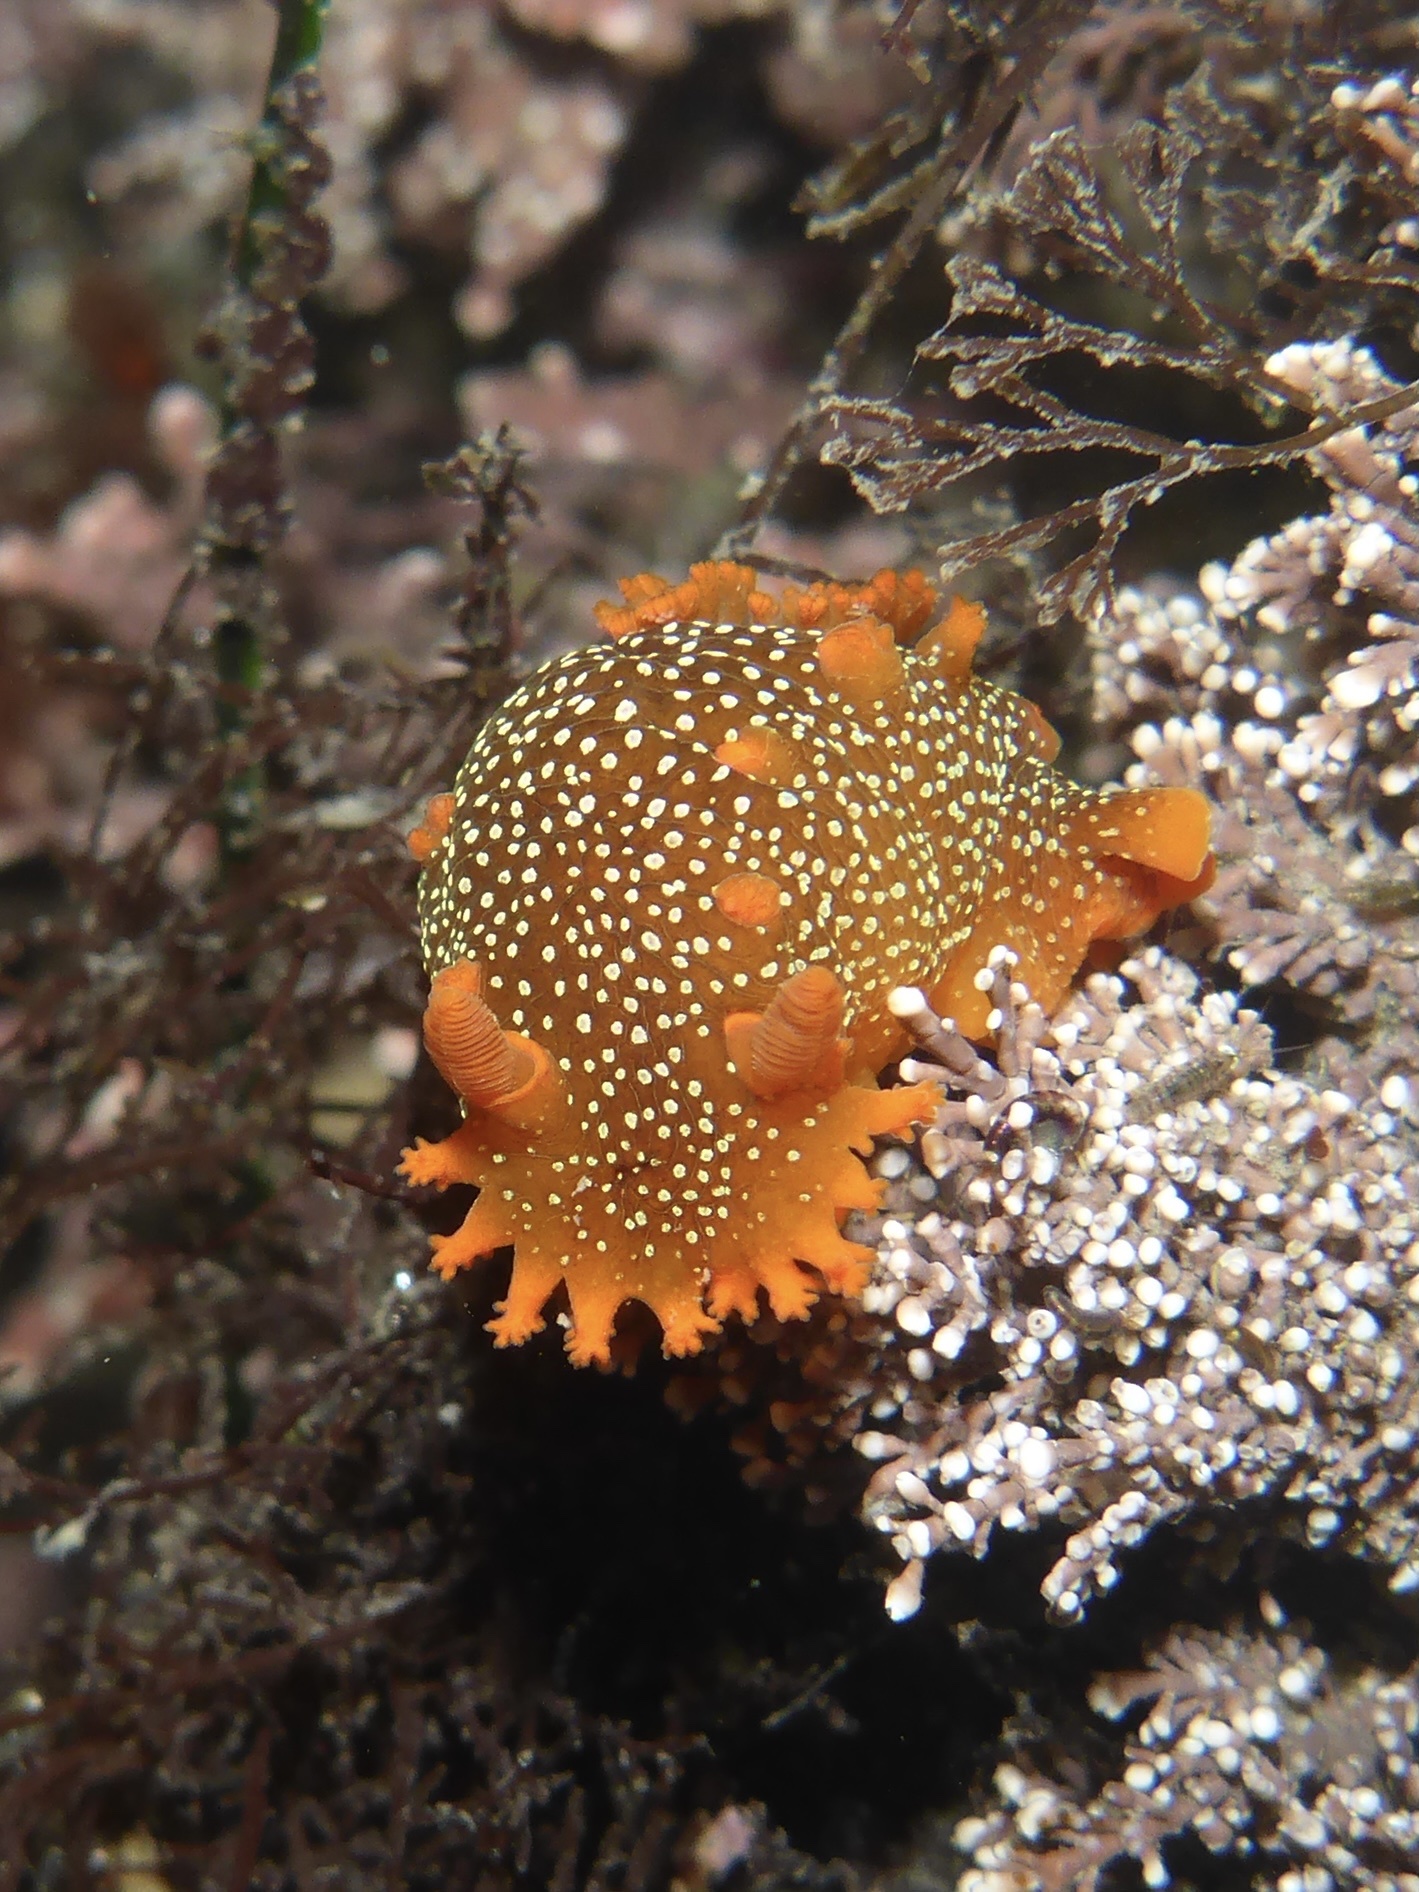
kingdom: Animalia
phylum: Mollusca
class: Gastropoda
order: Nudibranchia
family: Polyceridae
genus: Triopha
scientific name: Triopha maculata
